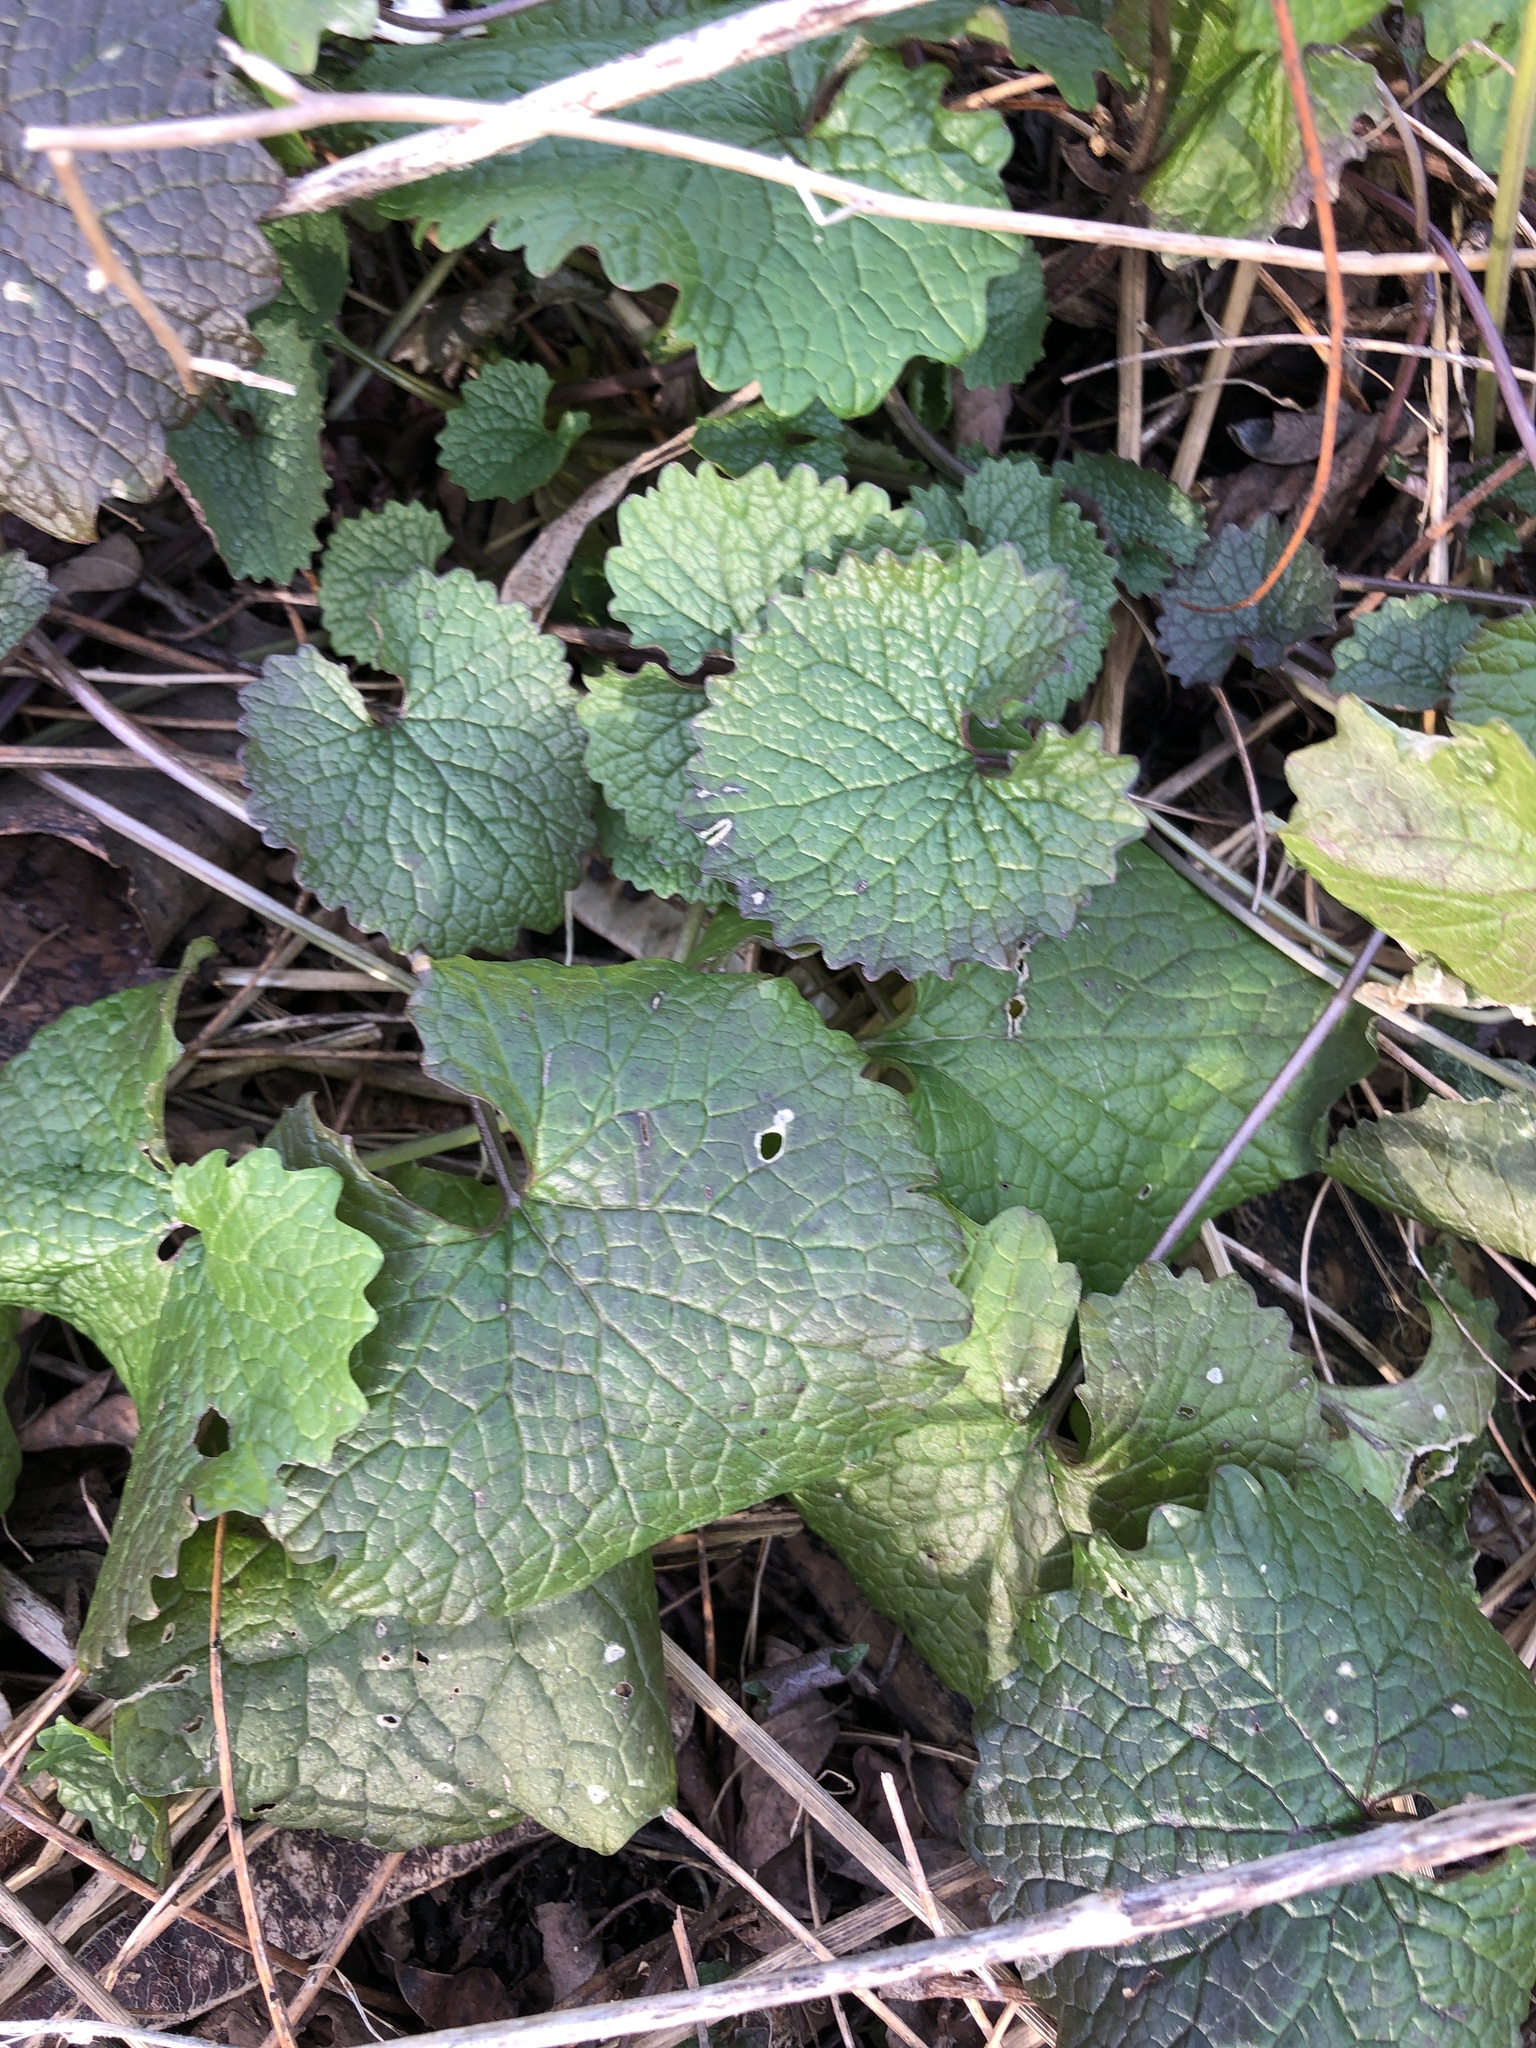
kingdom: Plantae
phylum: Tracheophyta
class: Magnoliopsida
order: Brassicales
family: Brassicaceae
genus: Alliaria
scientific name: Alliaria petiolata
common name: Garlic mustard
